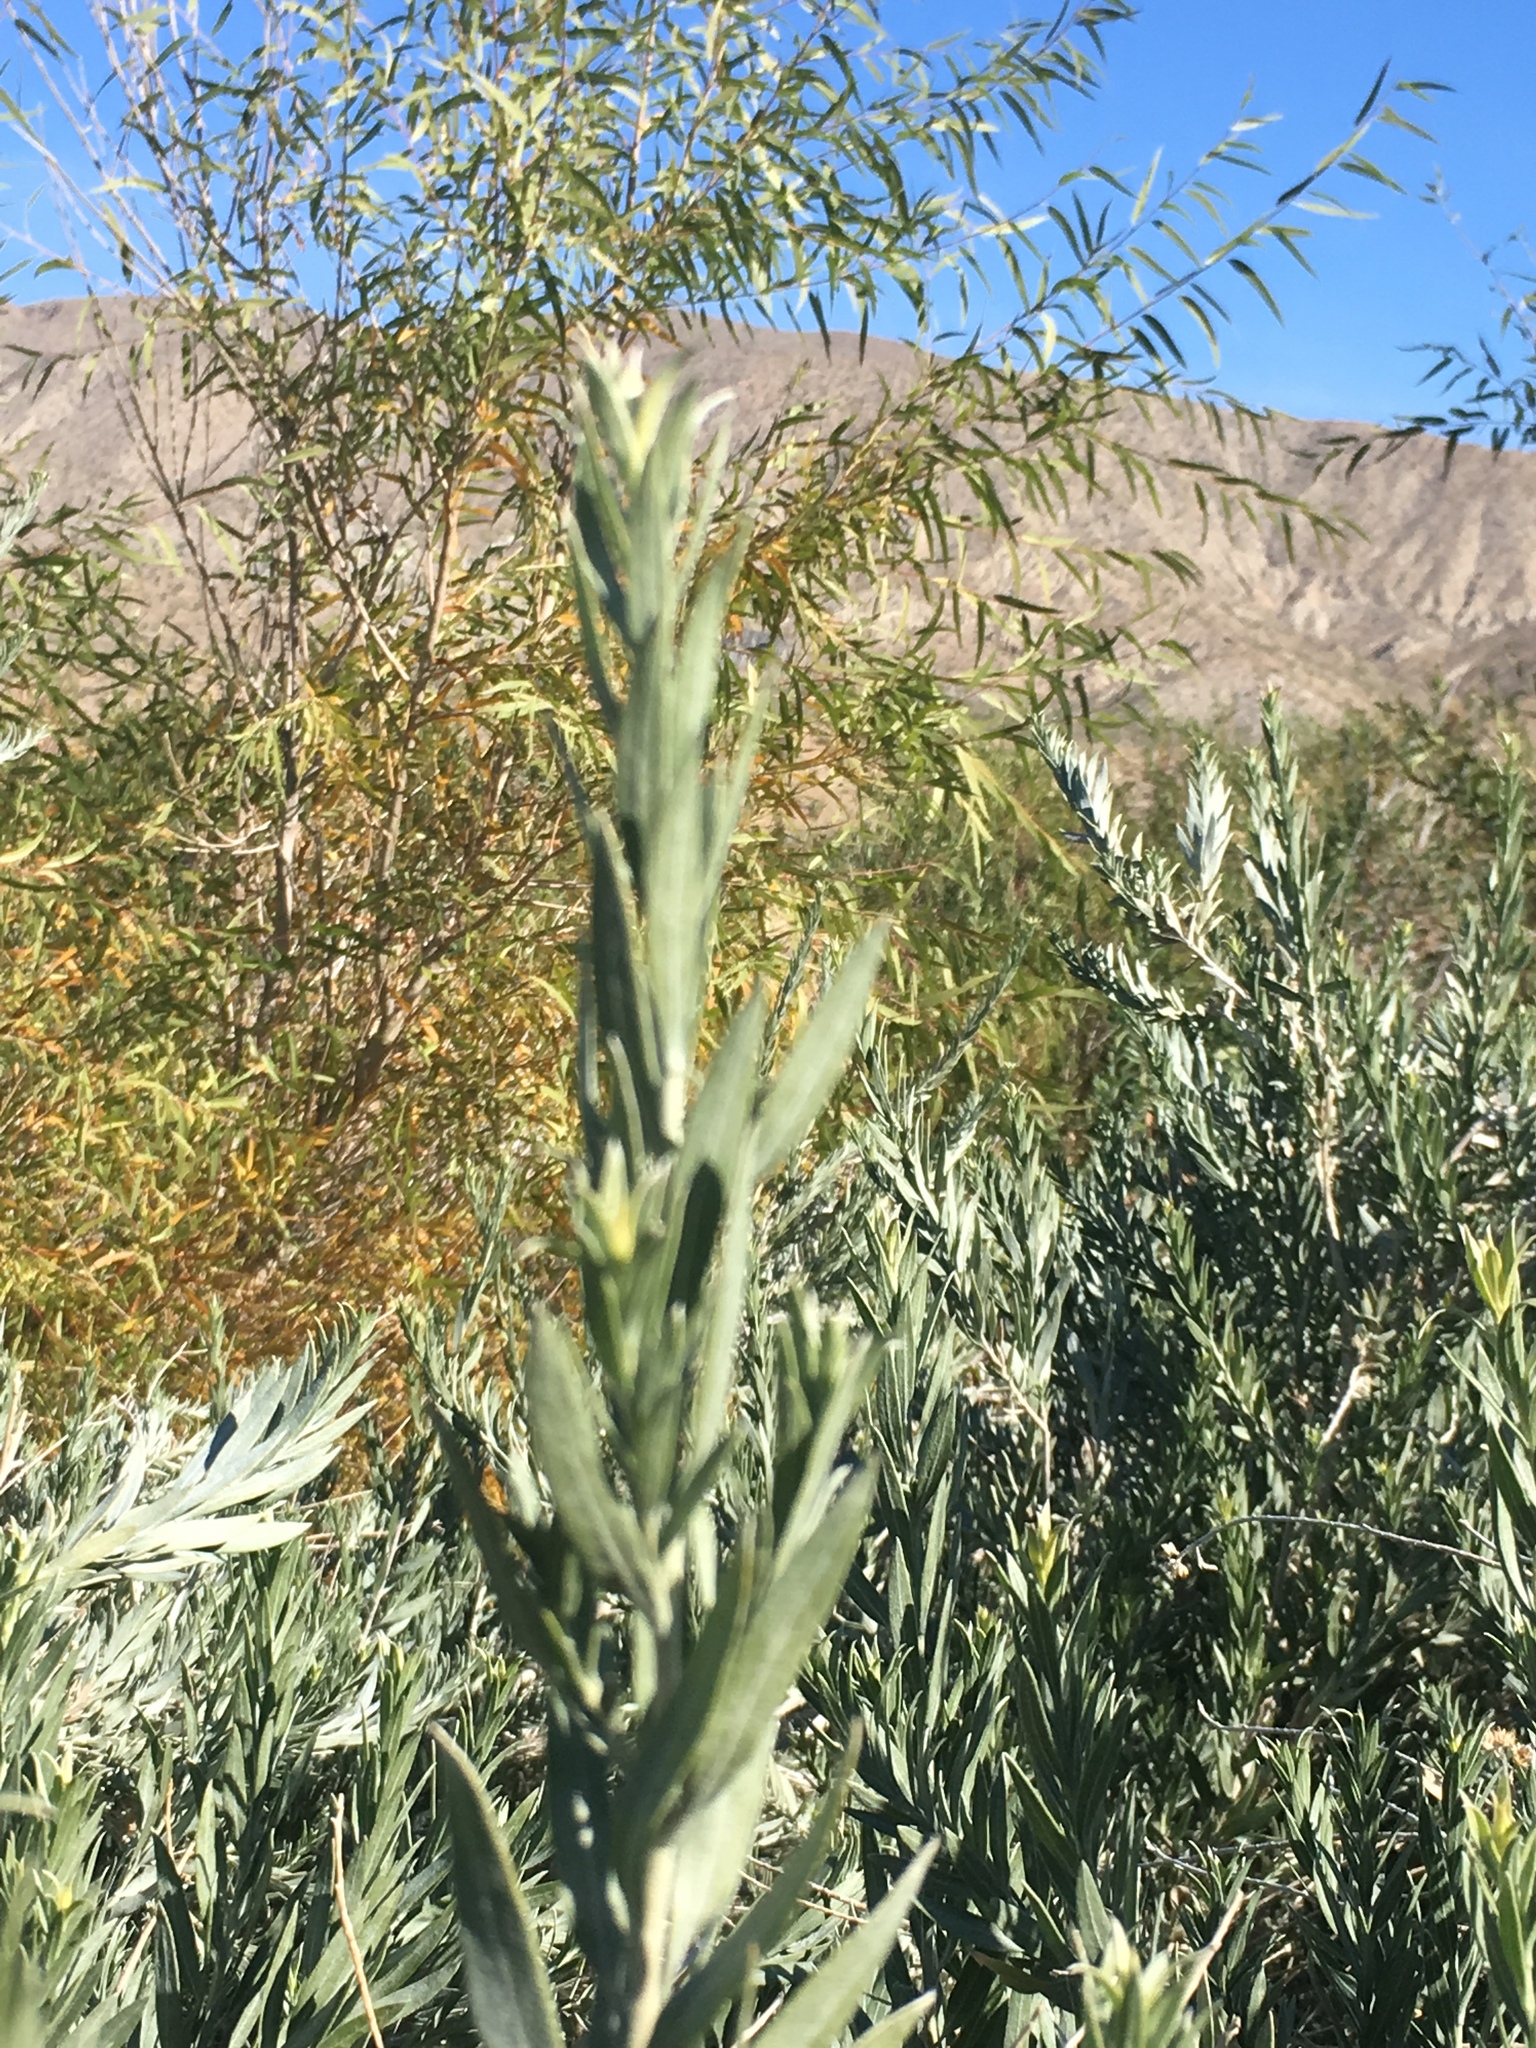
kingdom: Plantae
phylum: Tracheophyta
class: Magnoliopsida
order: Asterales
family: Asteraceae
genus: Pluchea
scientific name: Pluchea sericea
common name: Arrow-weed
